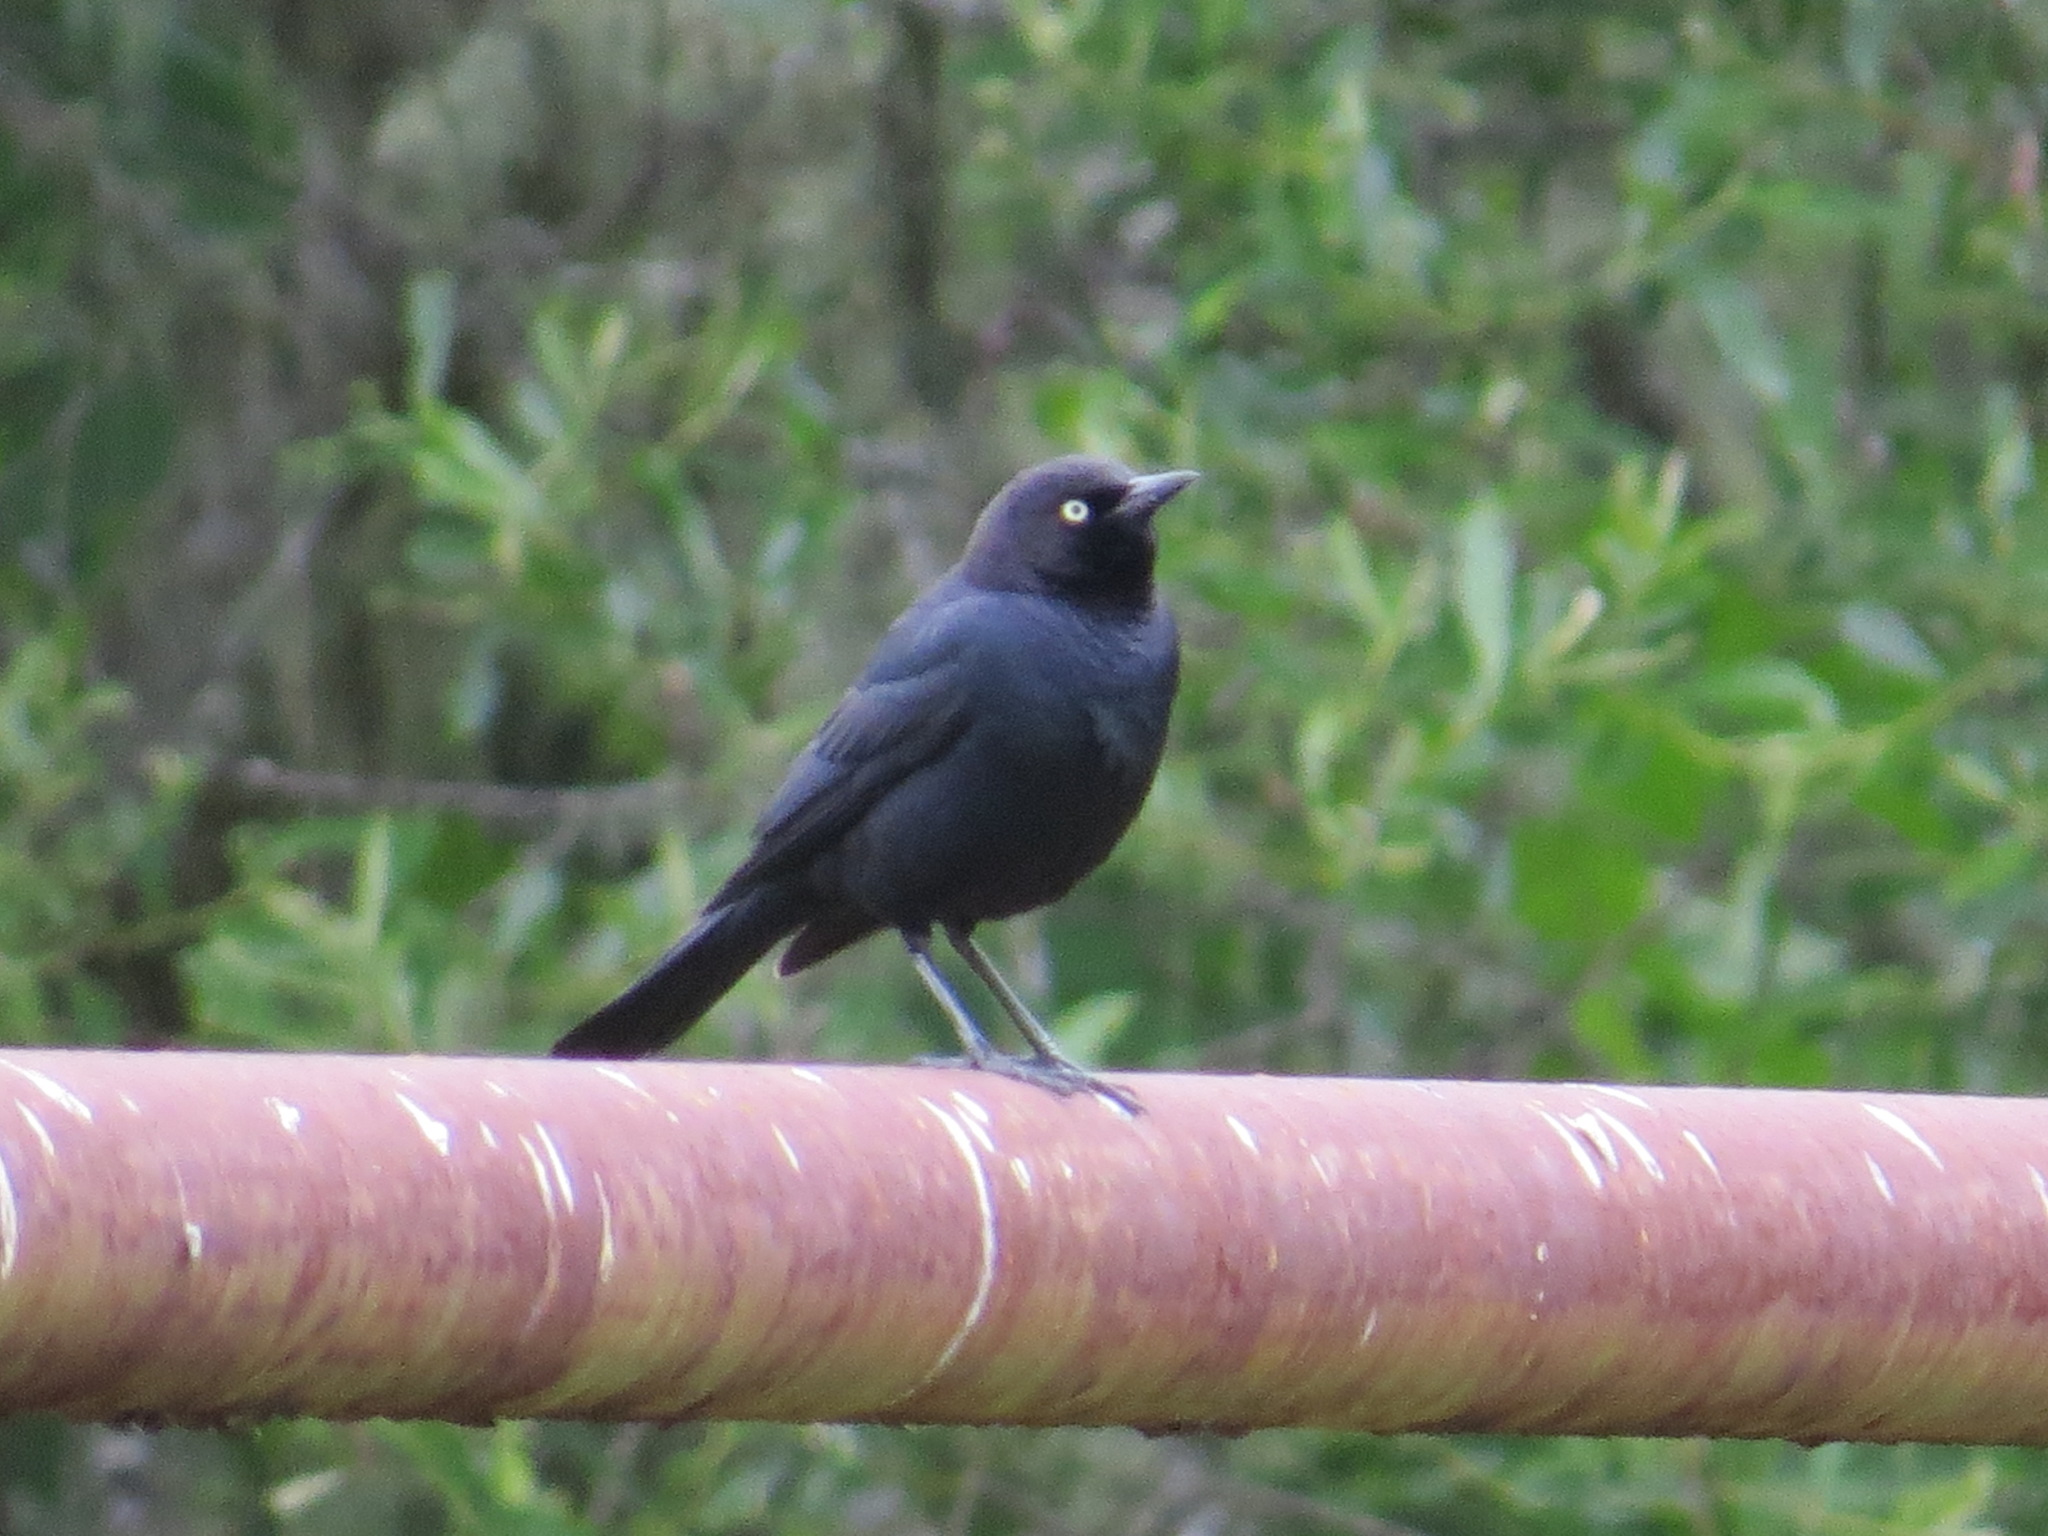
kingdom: Animalia
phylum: Chordata
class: Aves
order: Passeriformes
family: Icteridae
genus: Euphagus
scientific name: Euphagus cyanocephalus
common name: Brewer's blackbird
